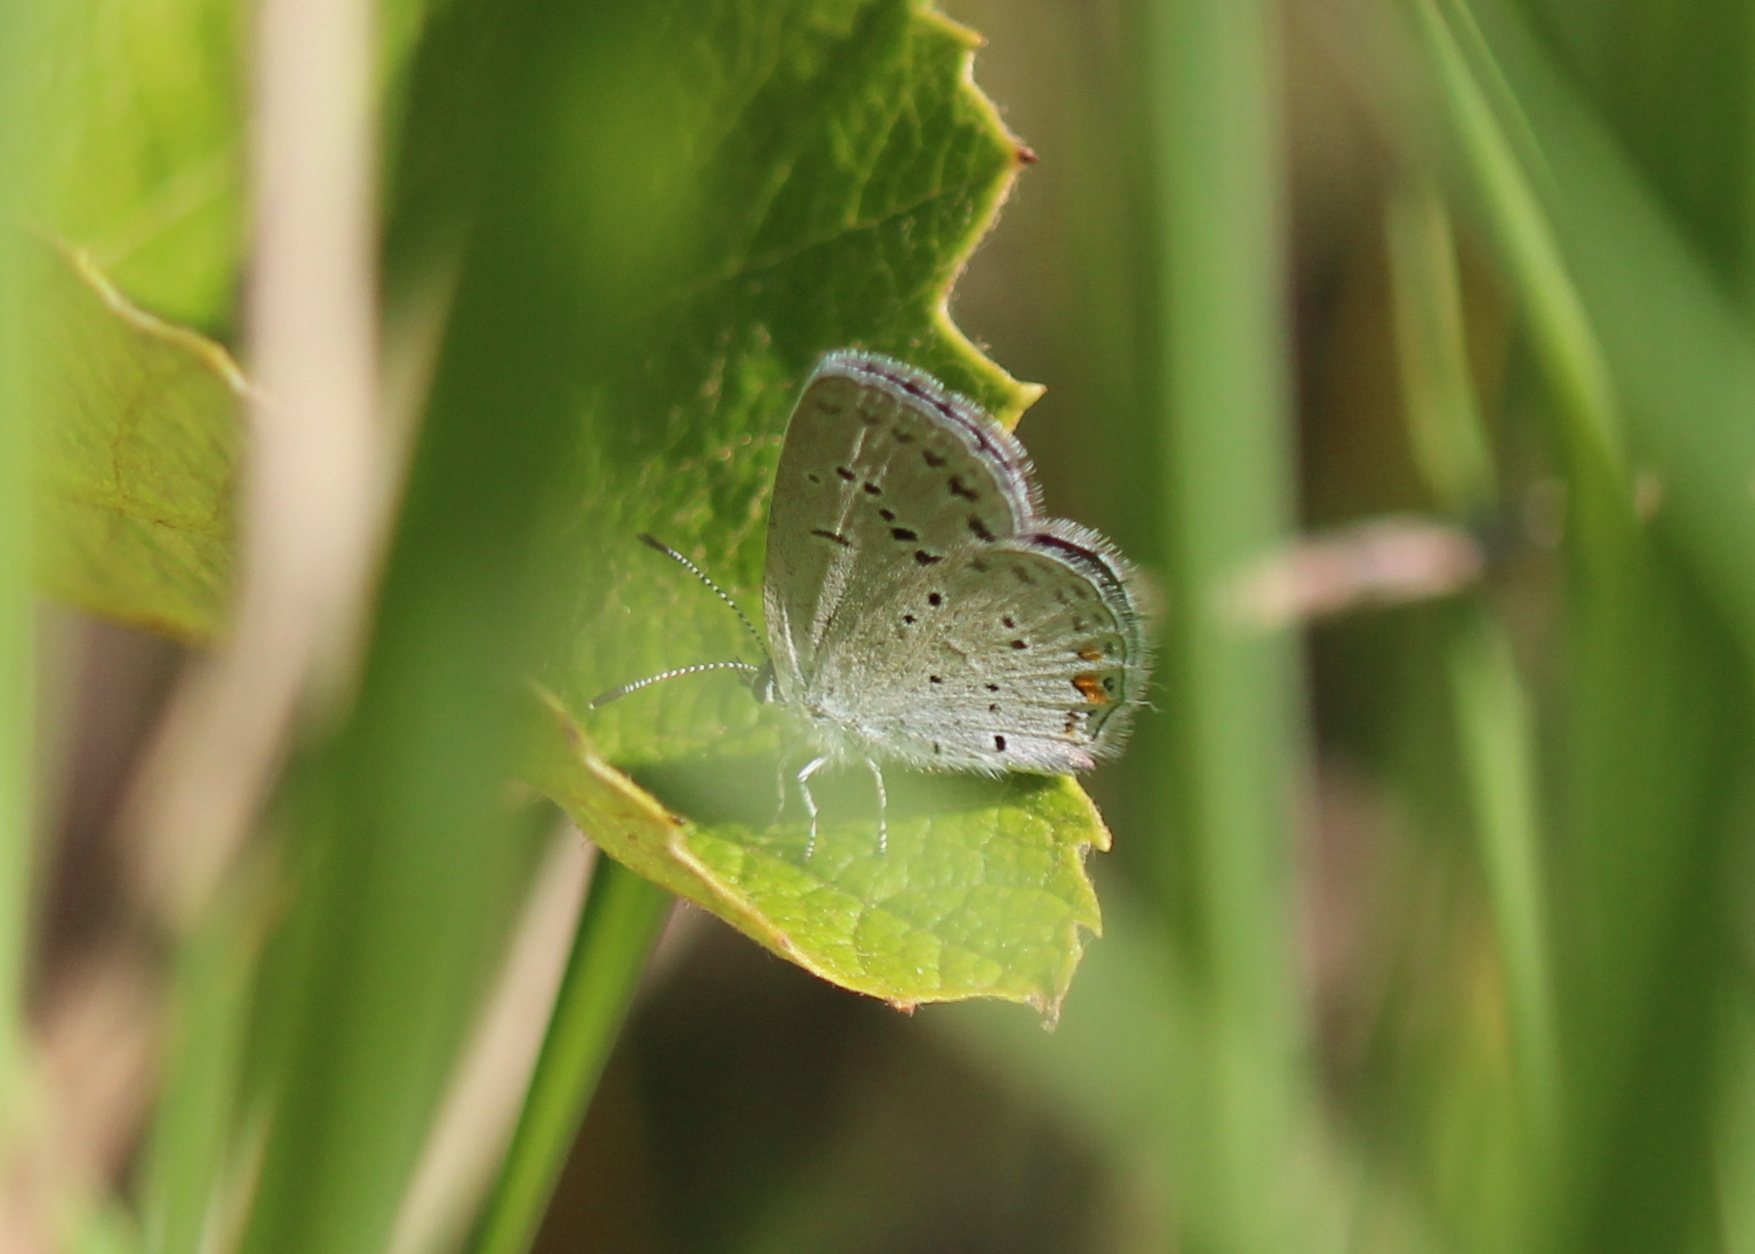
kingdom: Animalia
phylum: Arthropoda
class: Insecta
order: Lepidoptera
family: Lycaenidae
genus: Elkalyce
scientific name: Elkalyce comyntas
